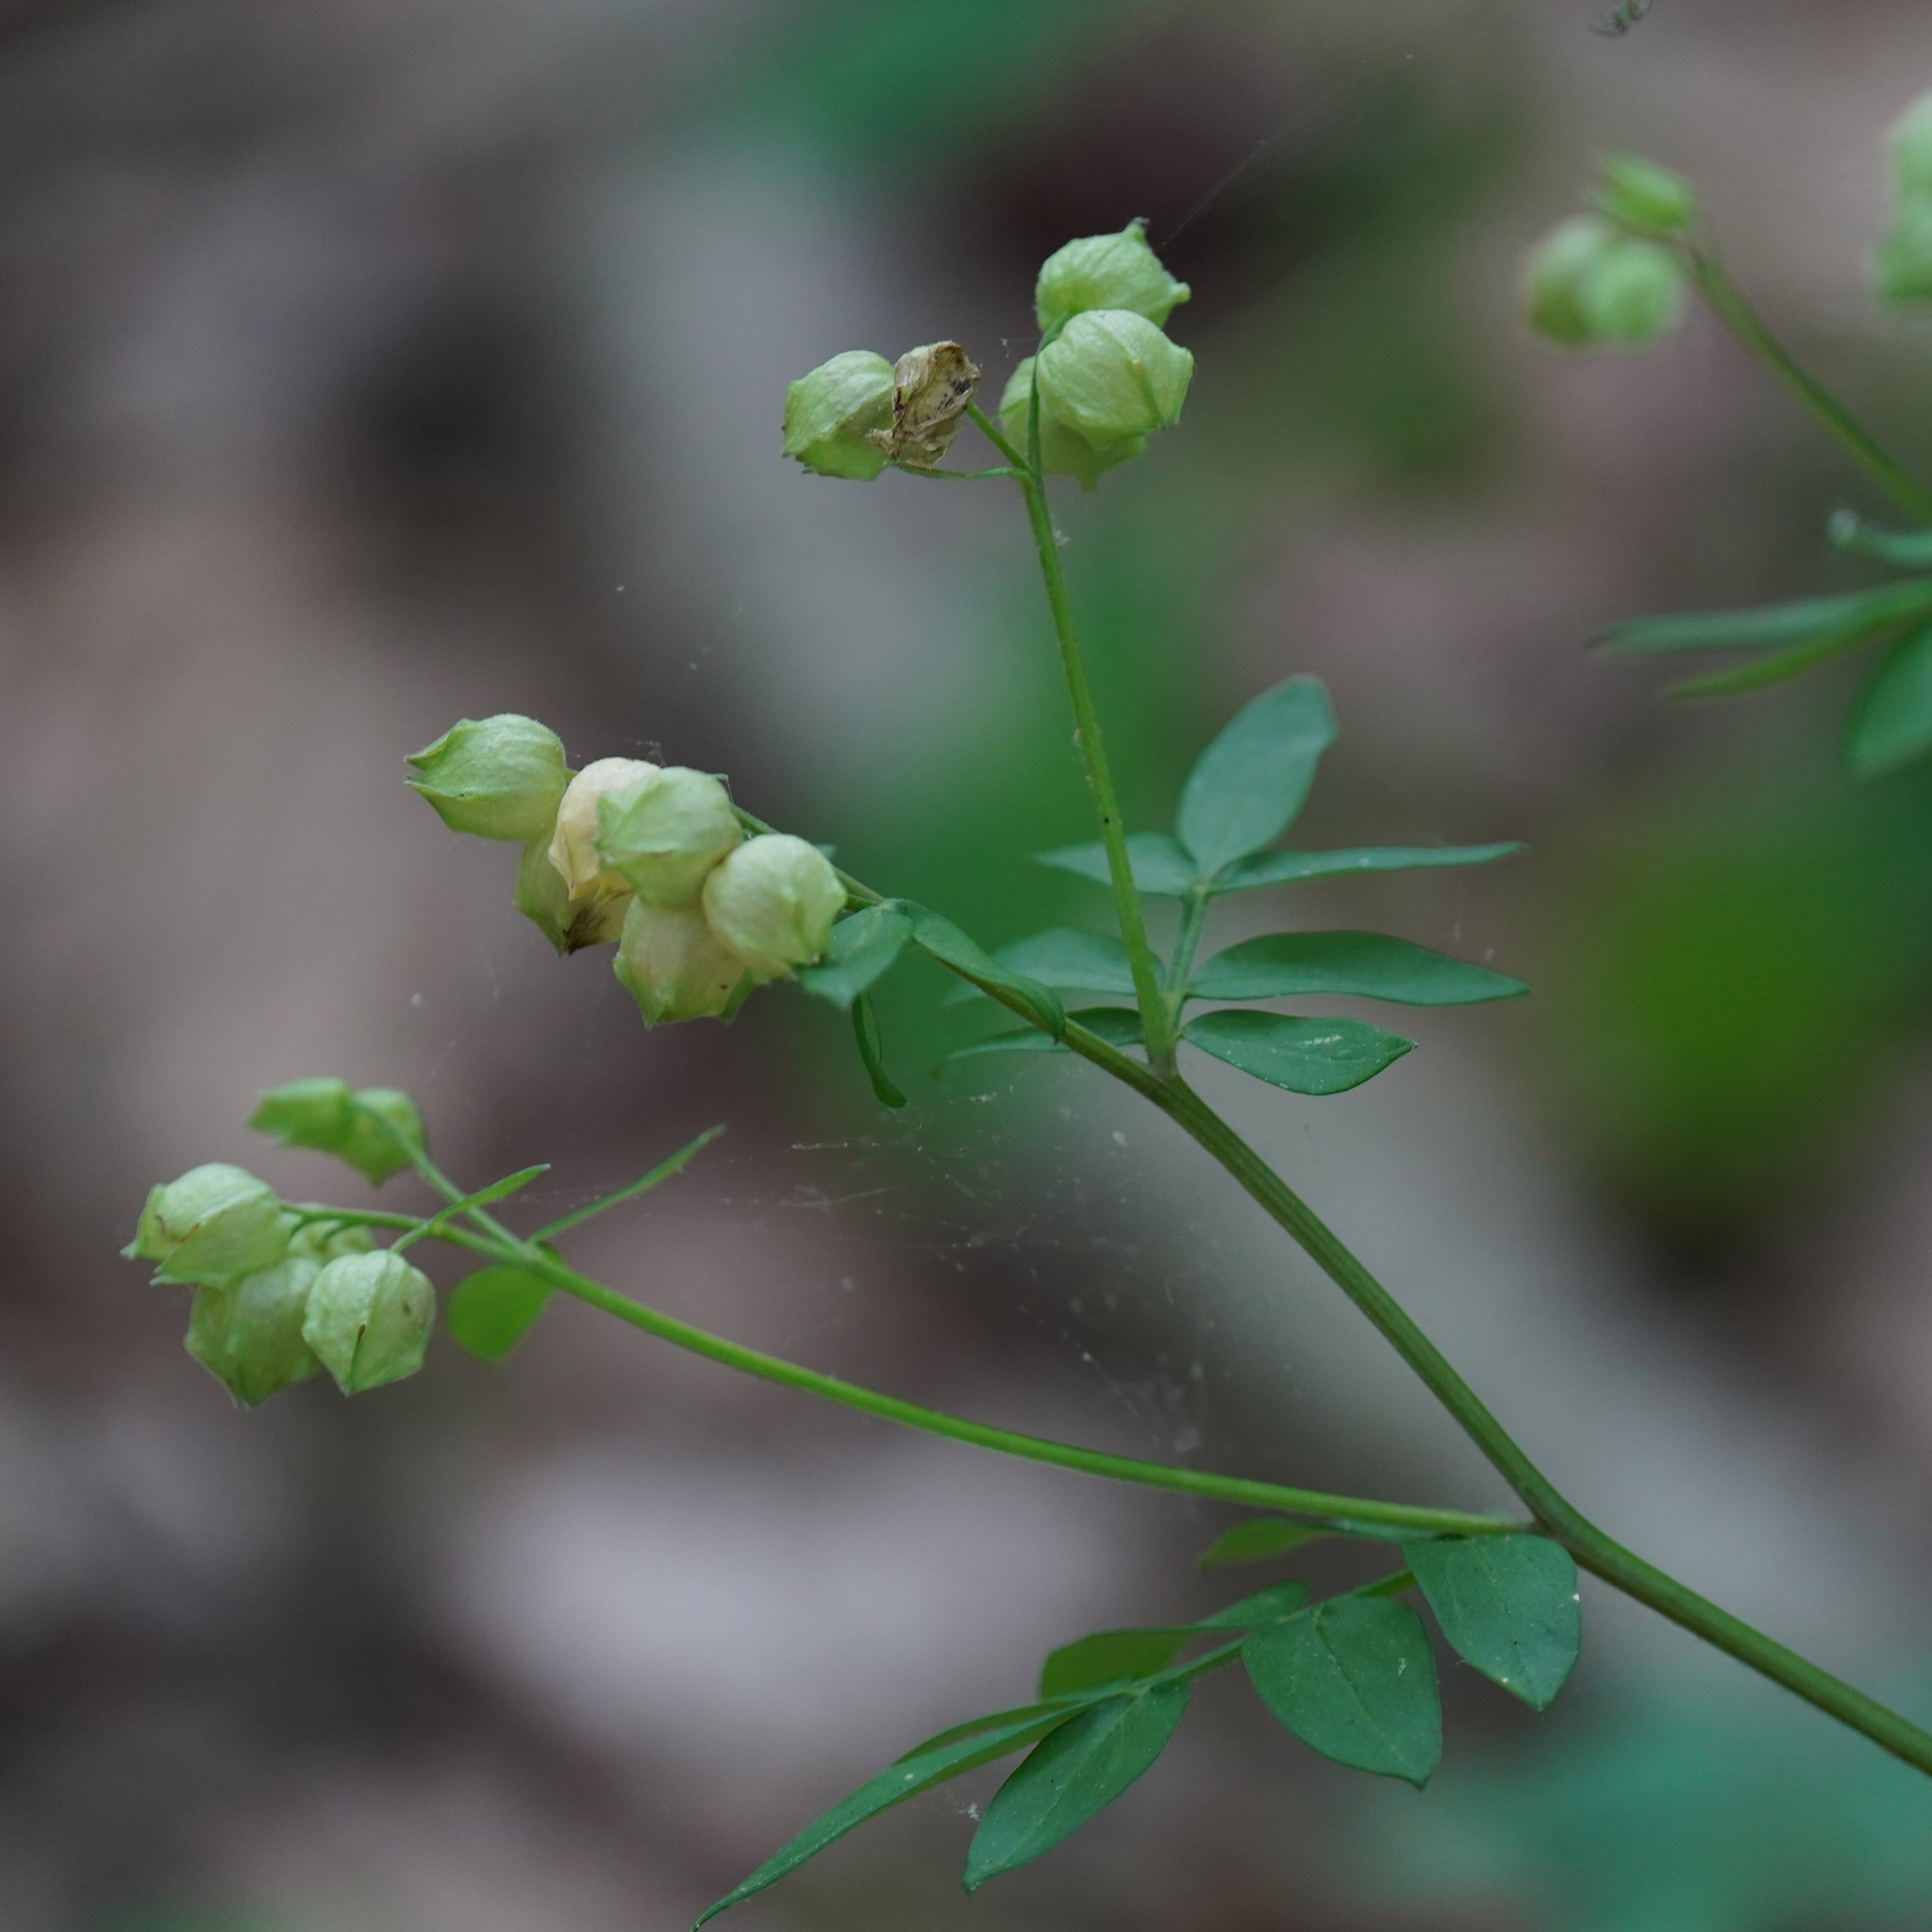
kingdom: Plantae
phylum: Tracheophyta
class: Magnoliopsida
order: Ericales
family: Polemoniaceae
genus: Polemonium
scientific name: Polemonium reptans
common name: Creeping jacob's-ladder
